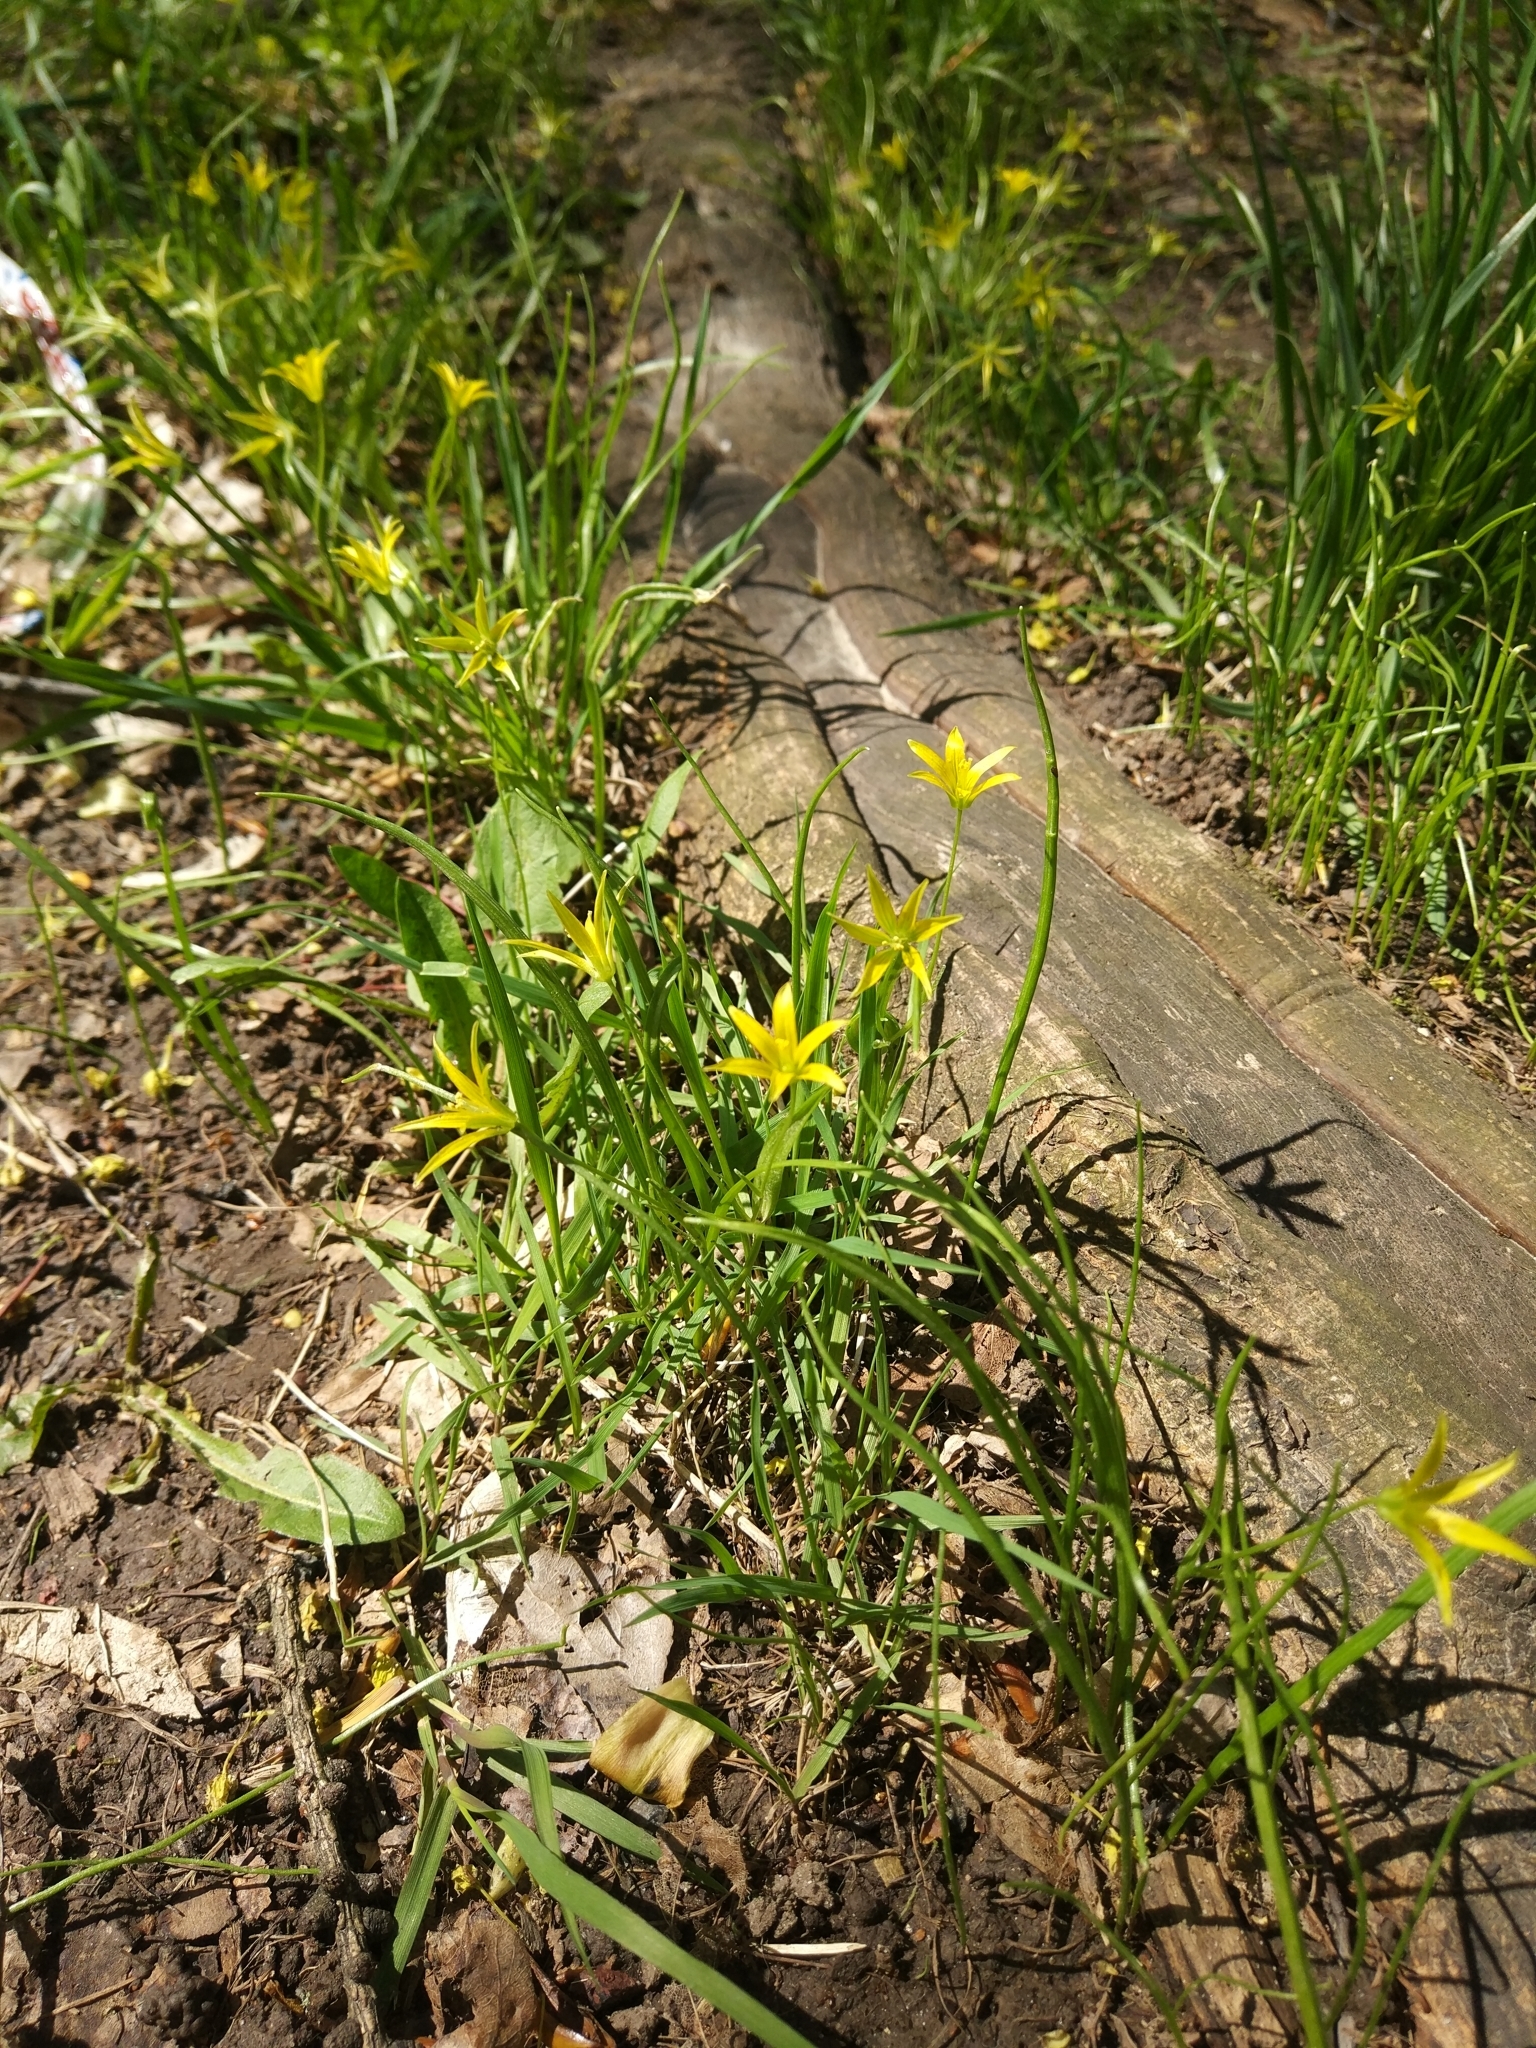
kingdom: Plantae
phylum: Tracheophyta
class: Liliopsida
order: Liliales
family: Liliaceae
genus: Gagea
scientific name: Gagea minima
